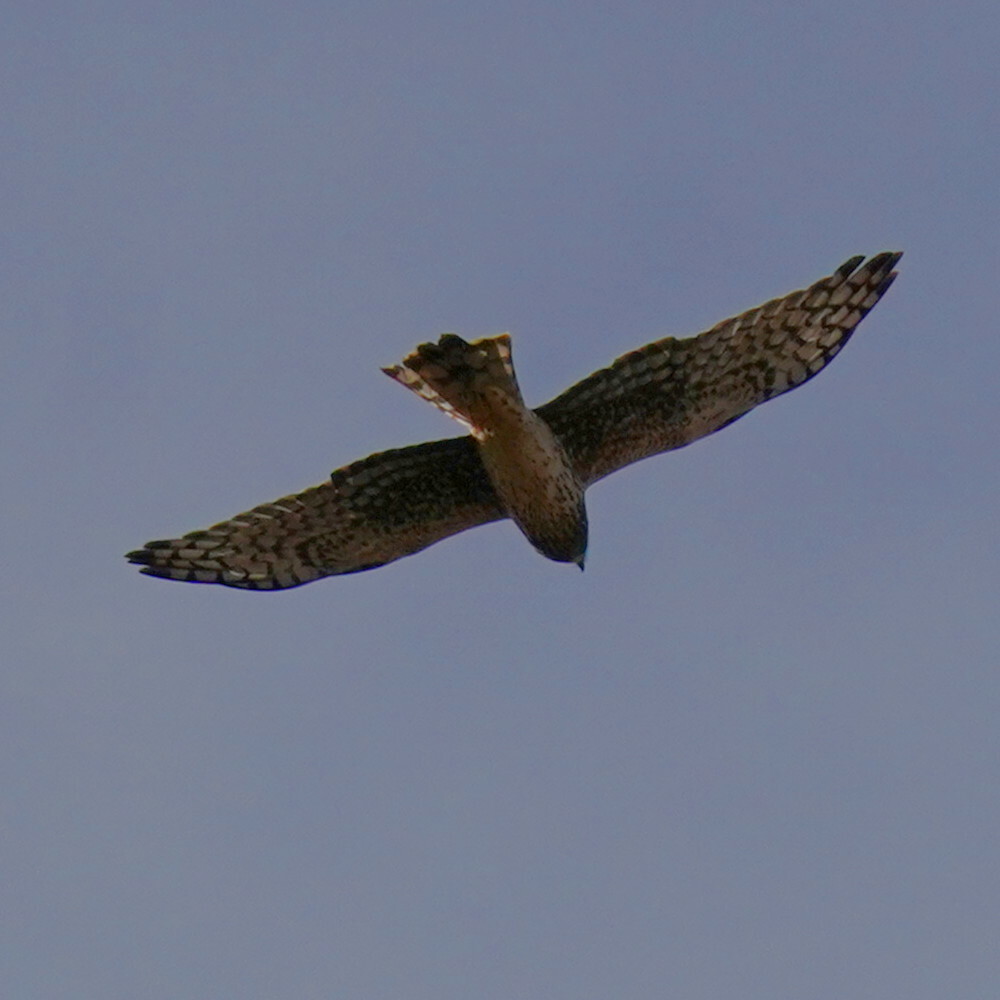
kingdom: Animalia
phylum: Chordata
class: Aves
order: Accipitriformes
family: Accipitridae
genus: Circus
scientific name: Circus cyaneus
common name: Hen harrier
